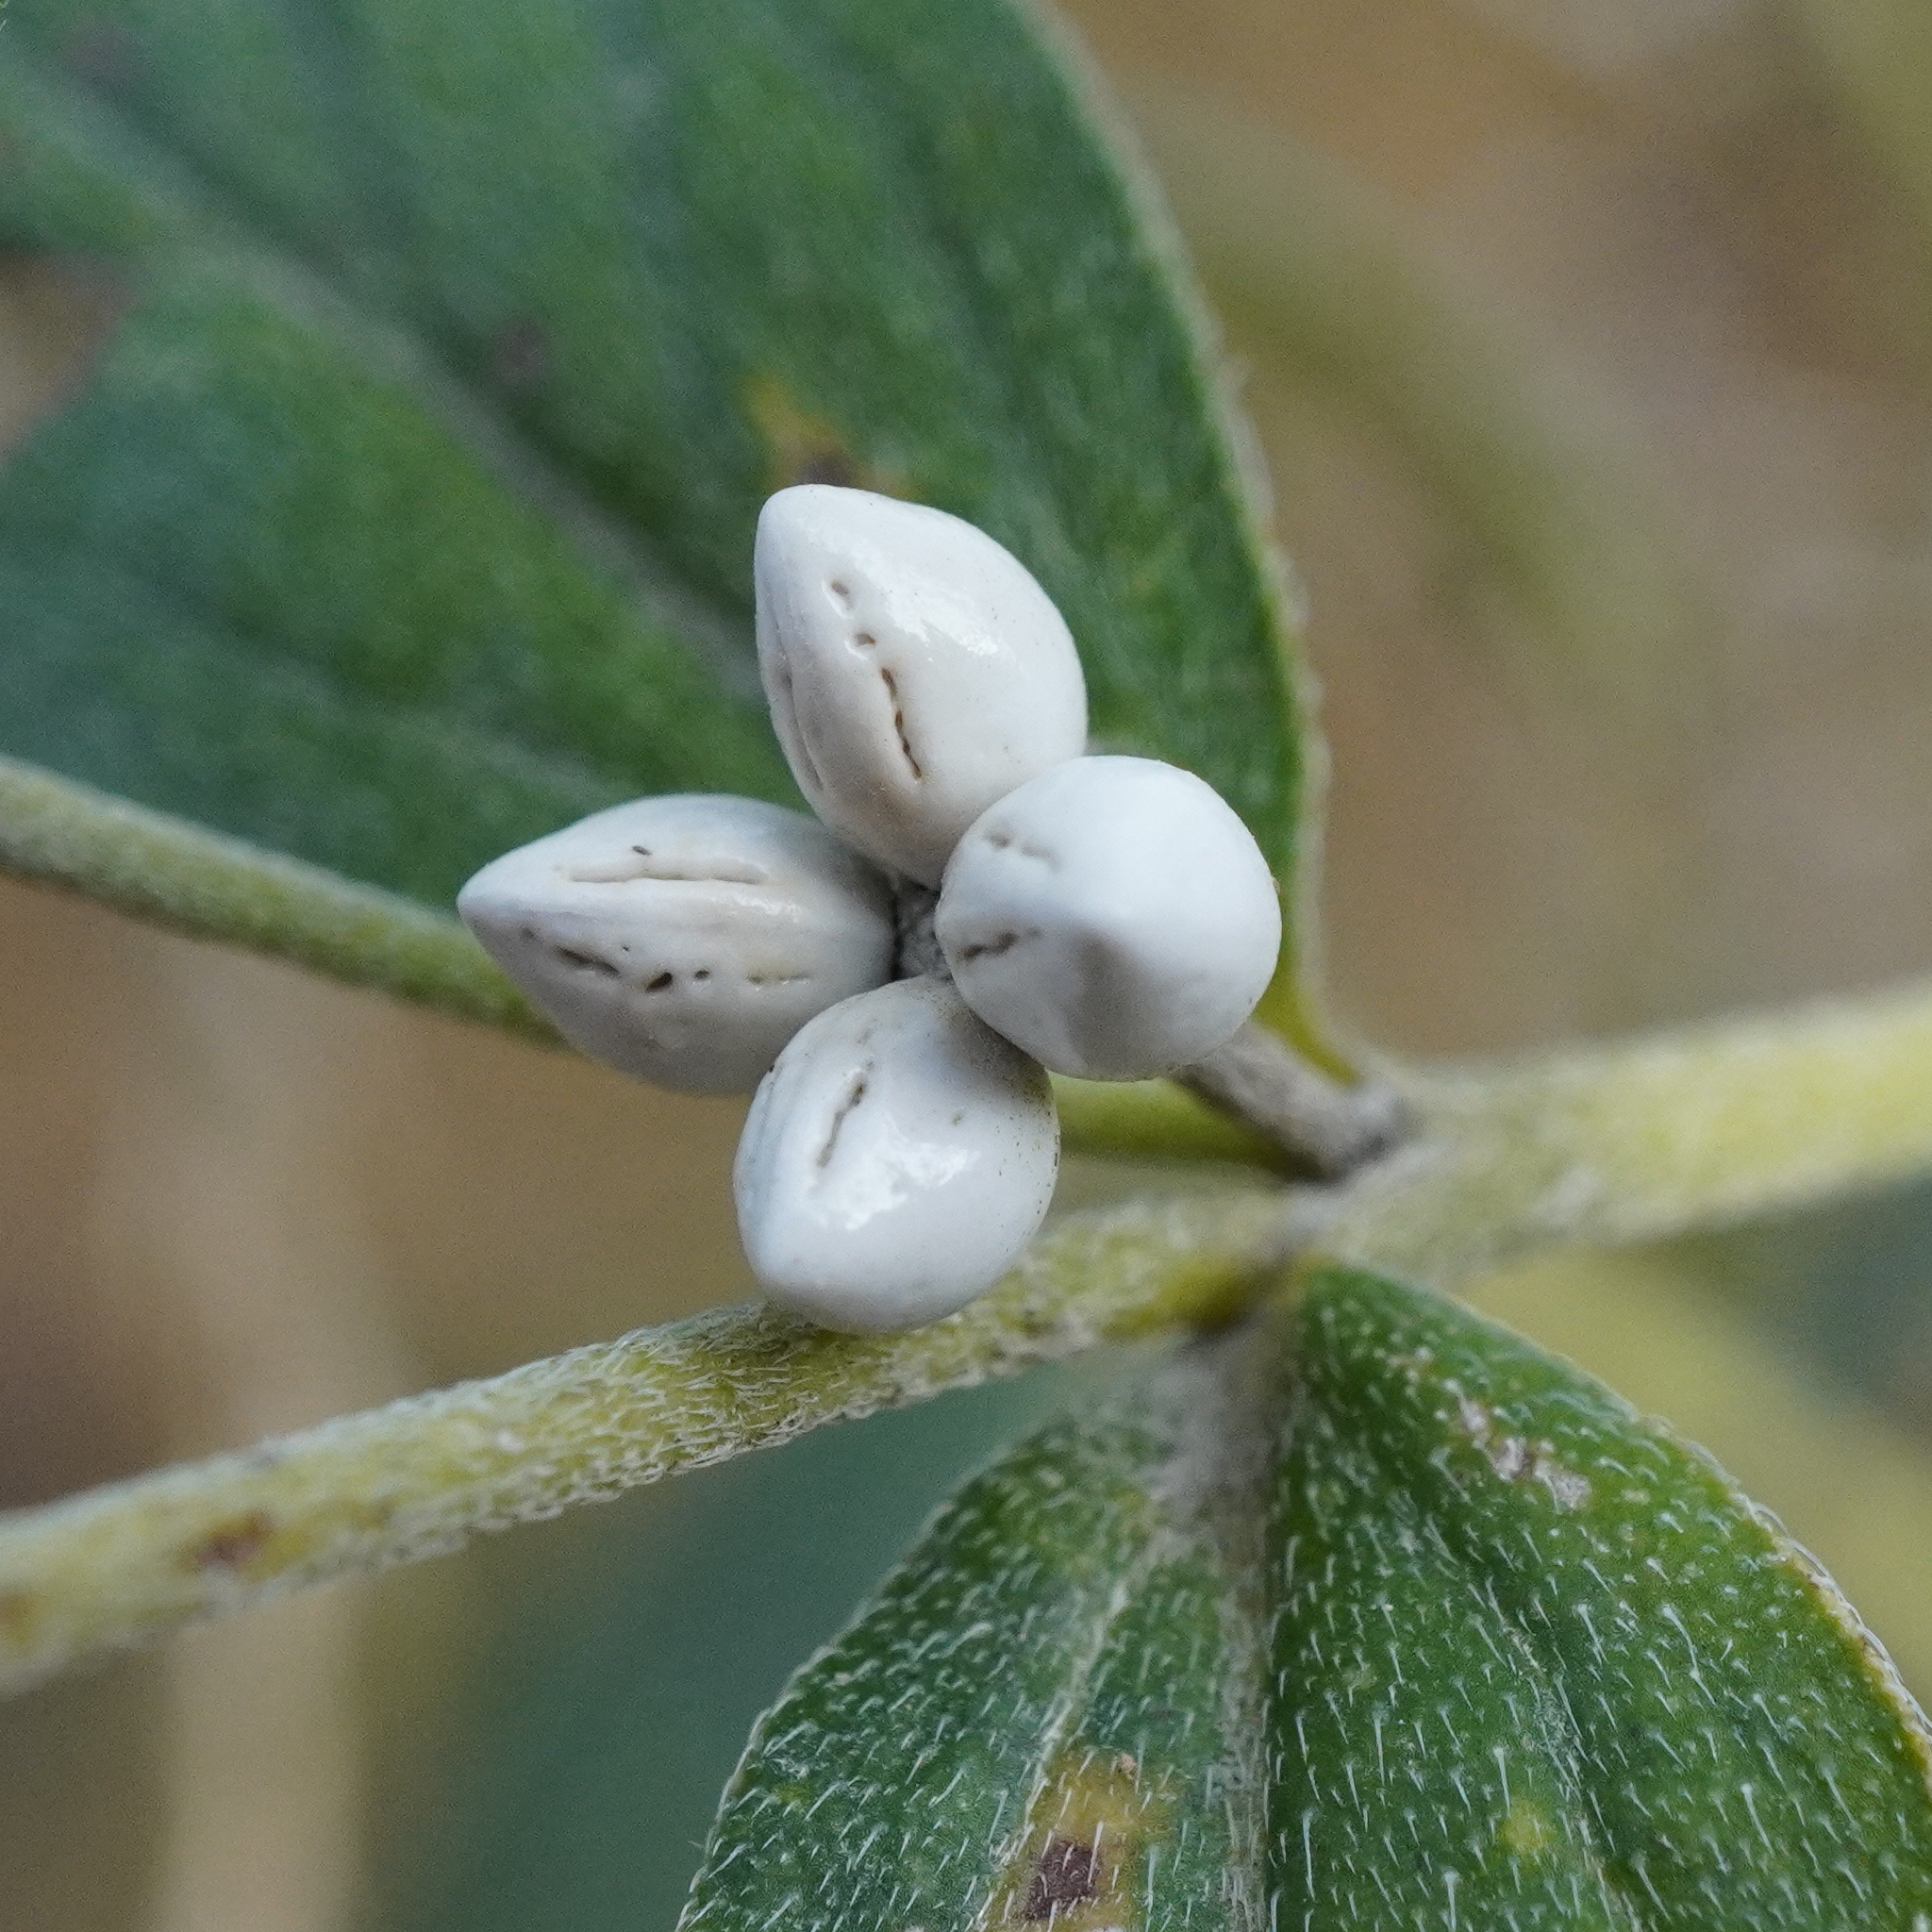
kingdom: Plantae
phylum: Tracheophyta
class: Magnoliopsida
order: Boraginales
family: Boraginaceae
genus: Lithospermum
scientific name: Lithospermum officinale
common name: Common gromwell
